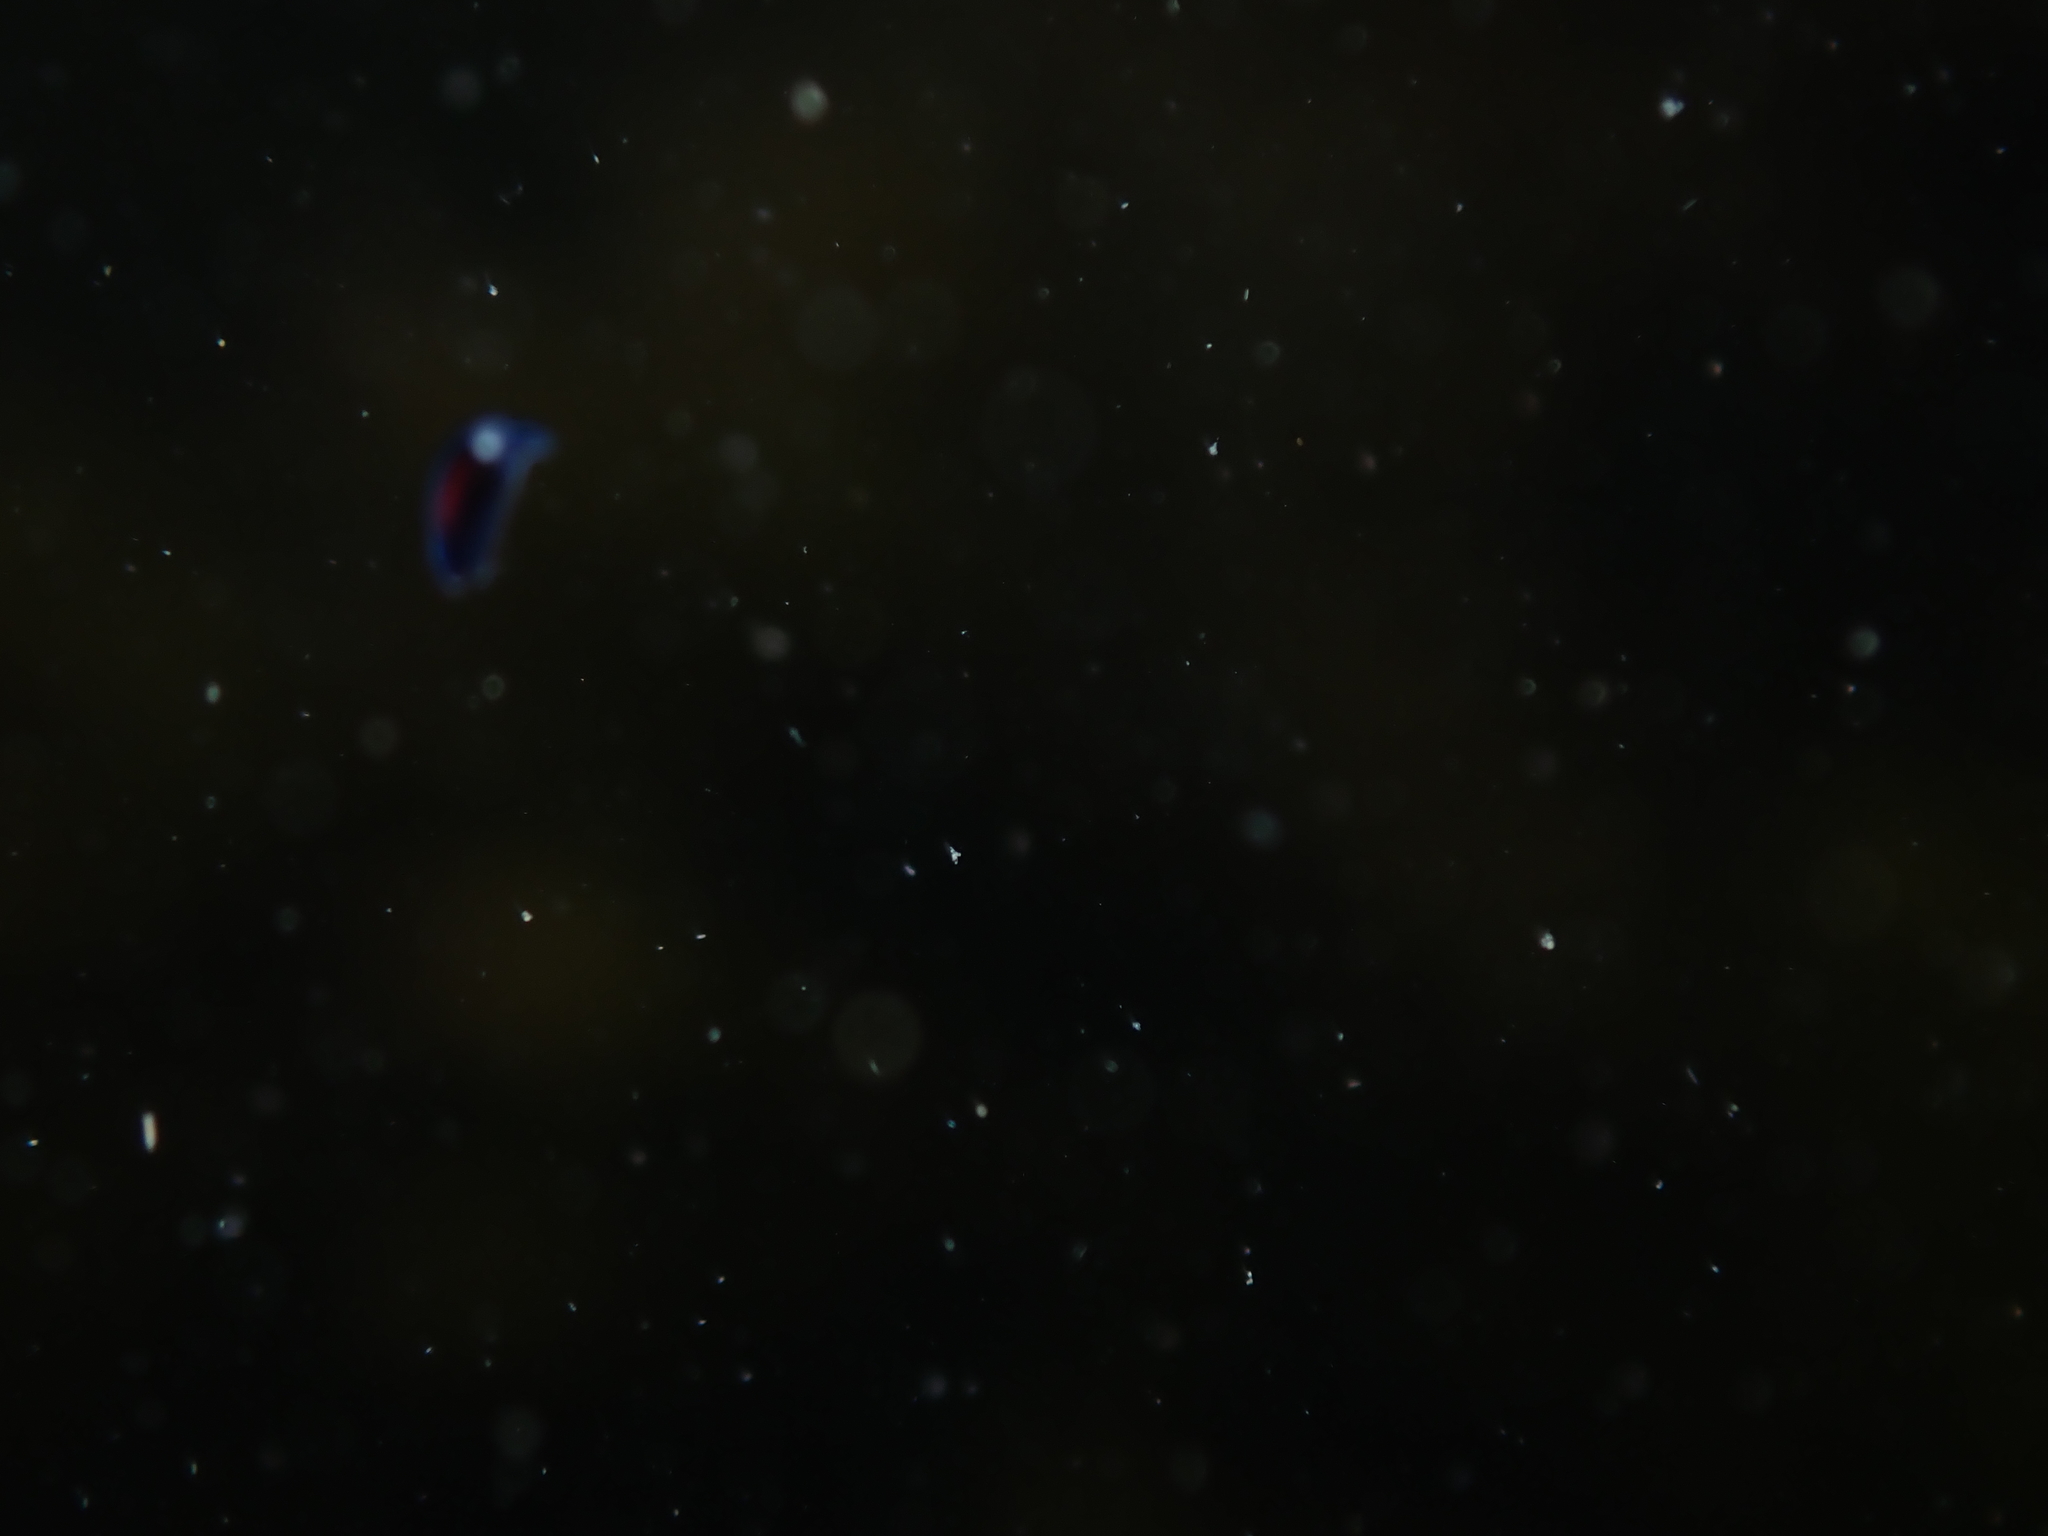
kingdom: Animalia
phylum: Mollusca
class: Gastropoda
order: Runcinida
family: Runcinidae
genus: Runcina
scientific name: Runcina katipoides
